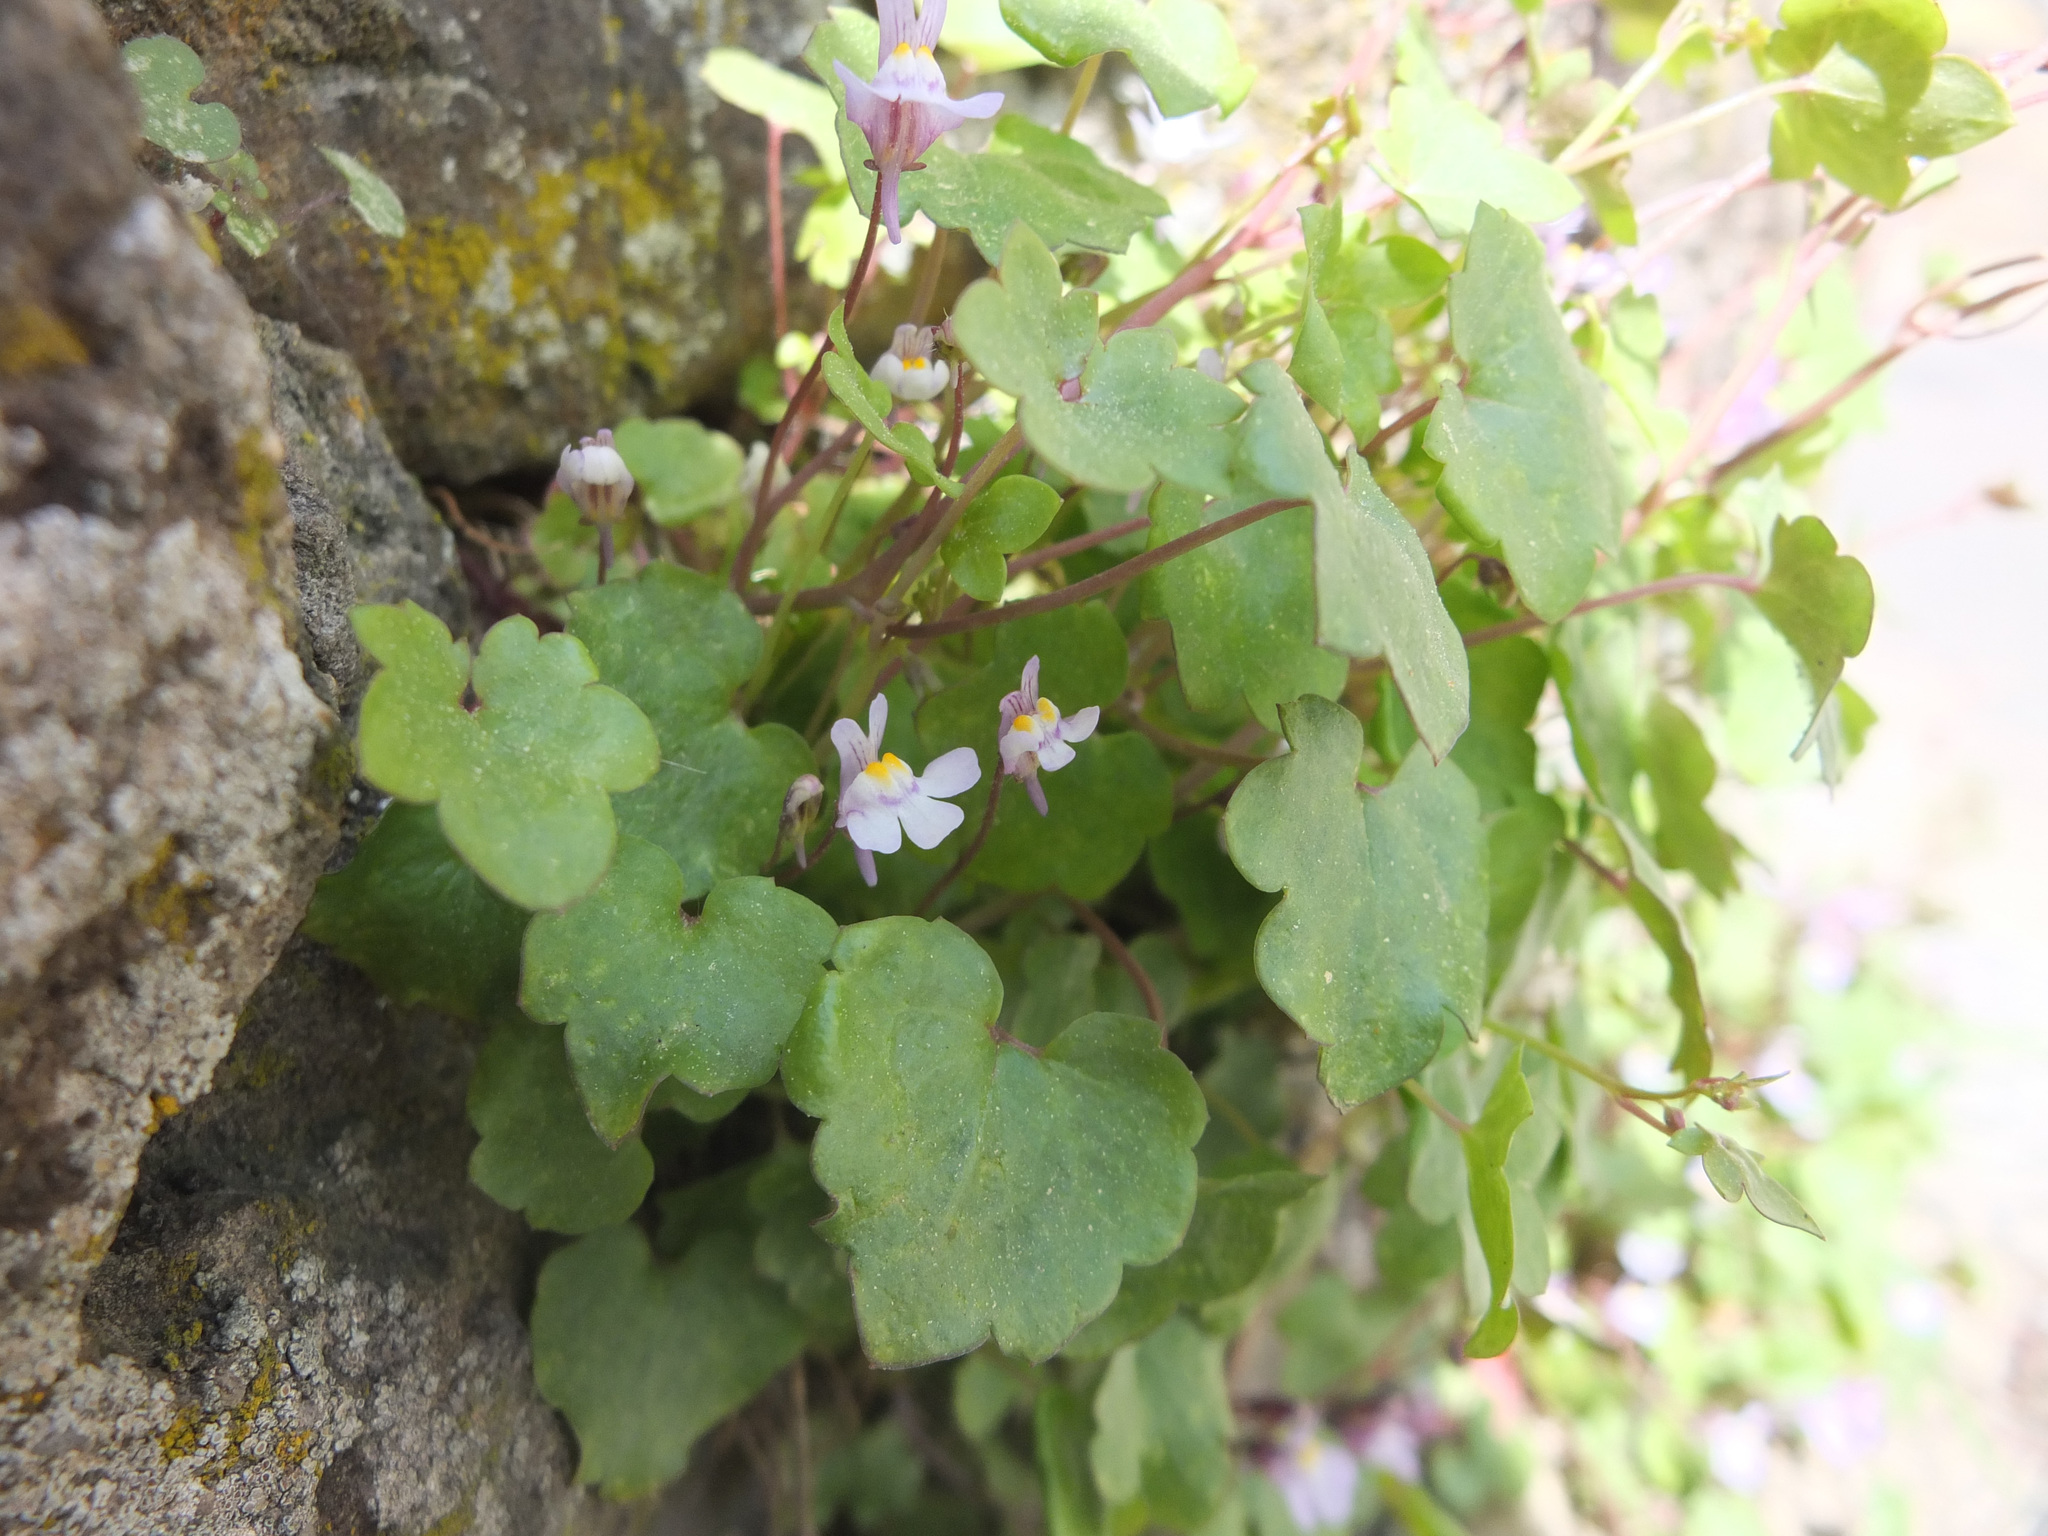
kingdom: Plantae
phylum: Tracheophyta
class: Magnoliopsida
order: Lamiales
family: Plantaginaceae
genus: Cymbalaria
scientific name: Cymbalaria muralis
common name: Ivy-leaved toadflax
